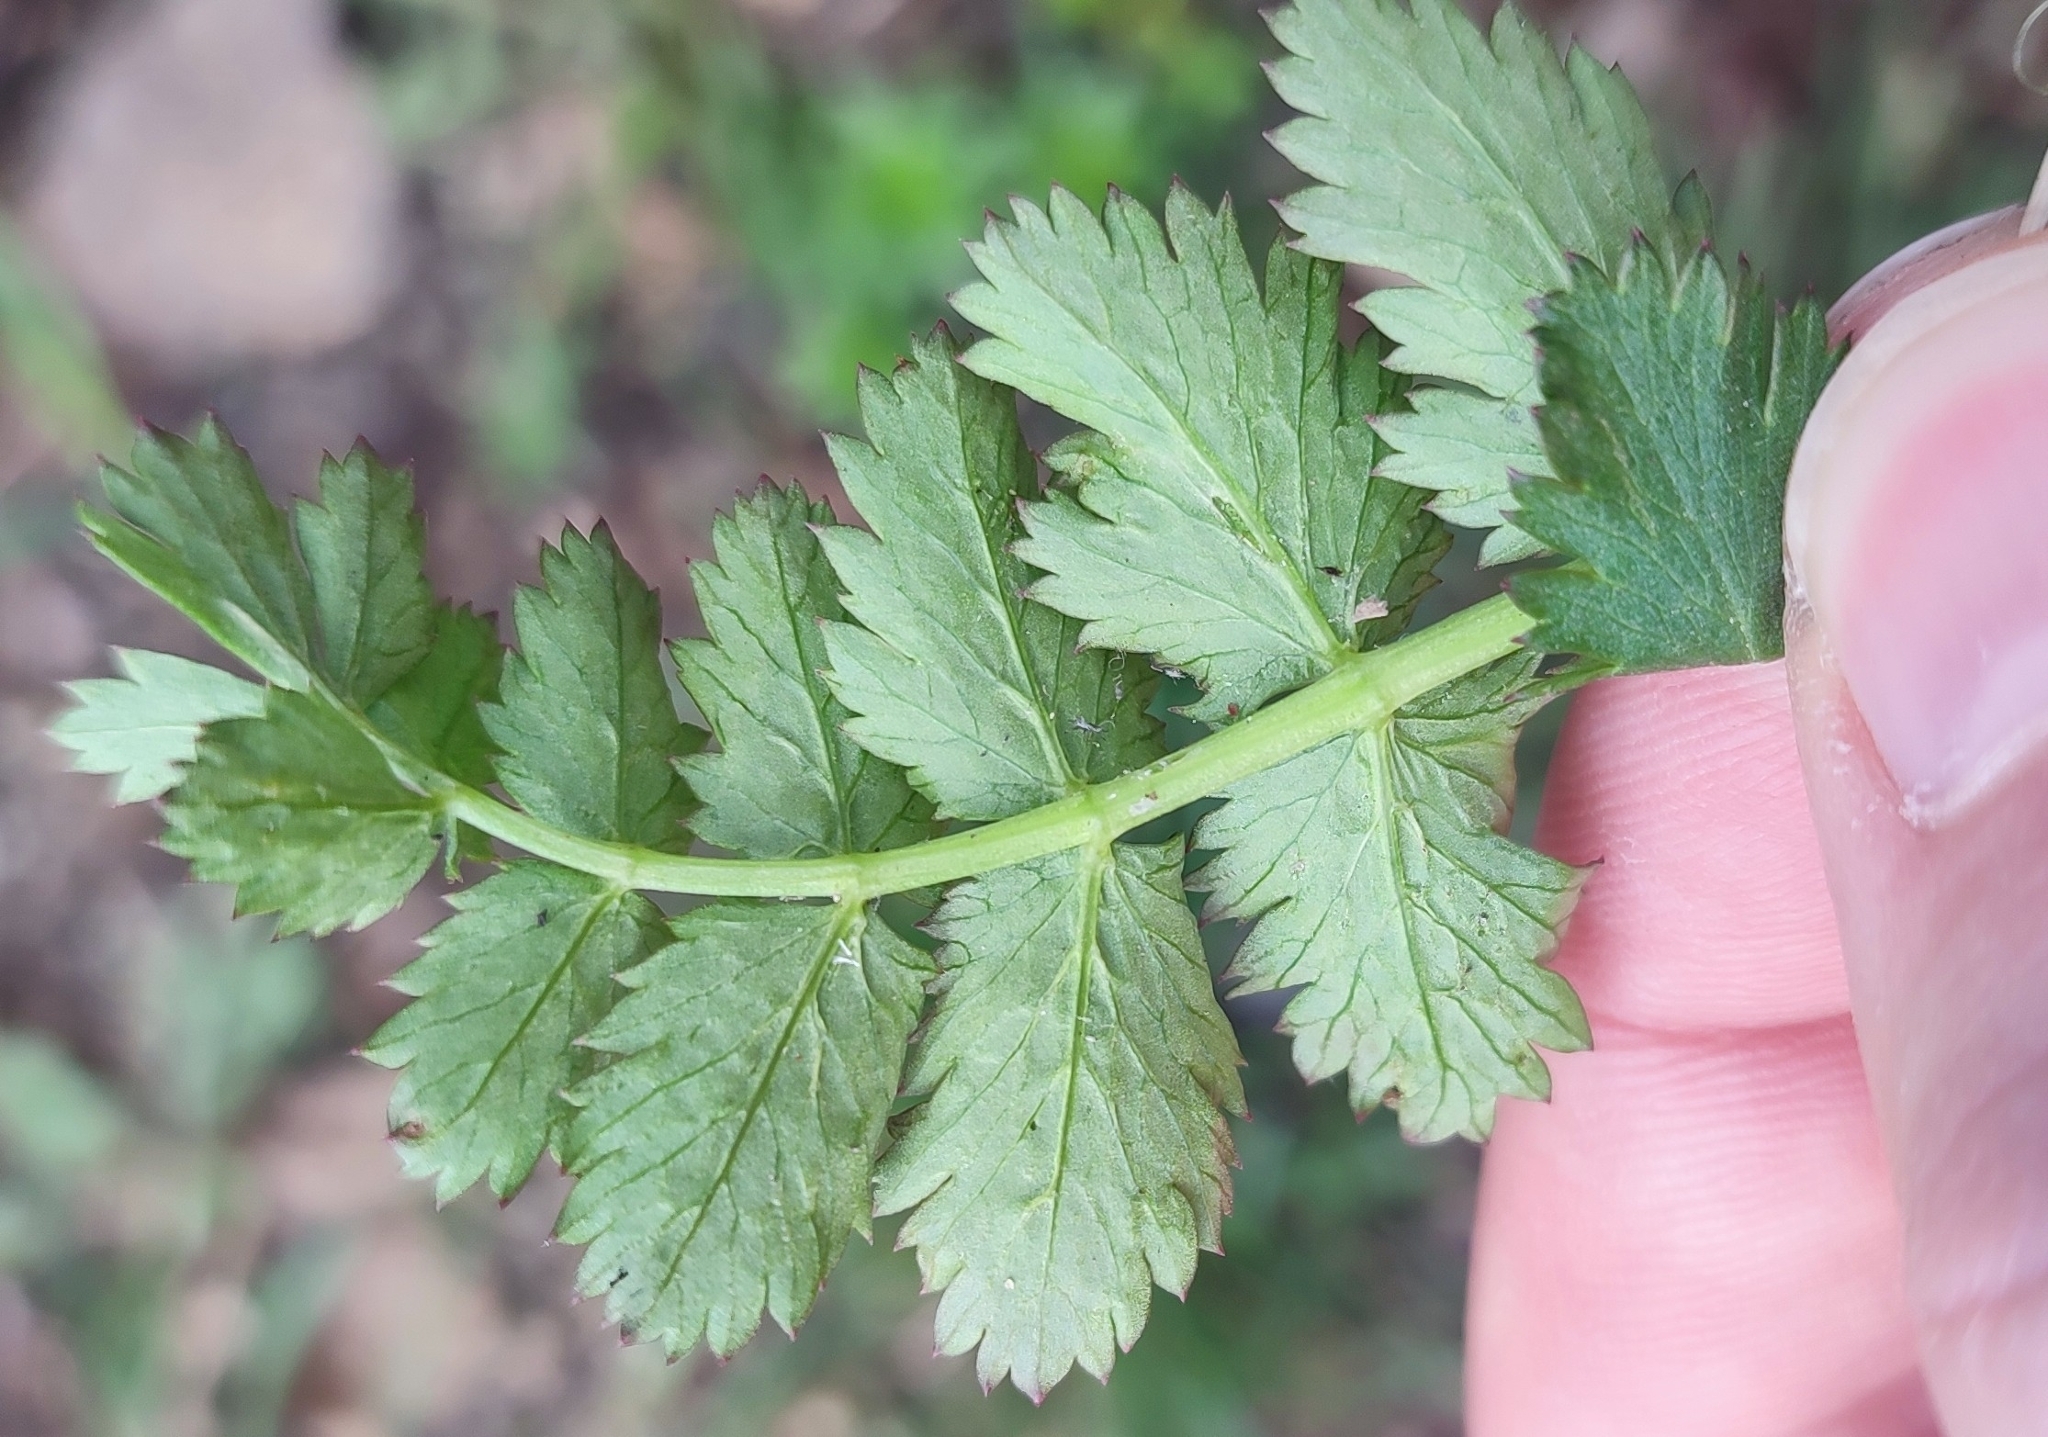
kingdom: Plantae
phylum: Tracheophyta
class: Magnoliopsida
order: Apiales
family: Apiaceae
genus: Pimpinella
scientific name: Pimpinella saxifraga
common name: Burnet-saxifrage
